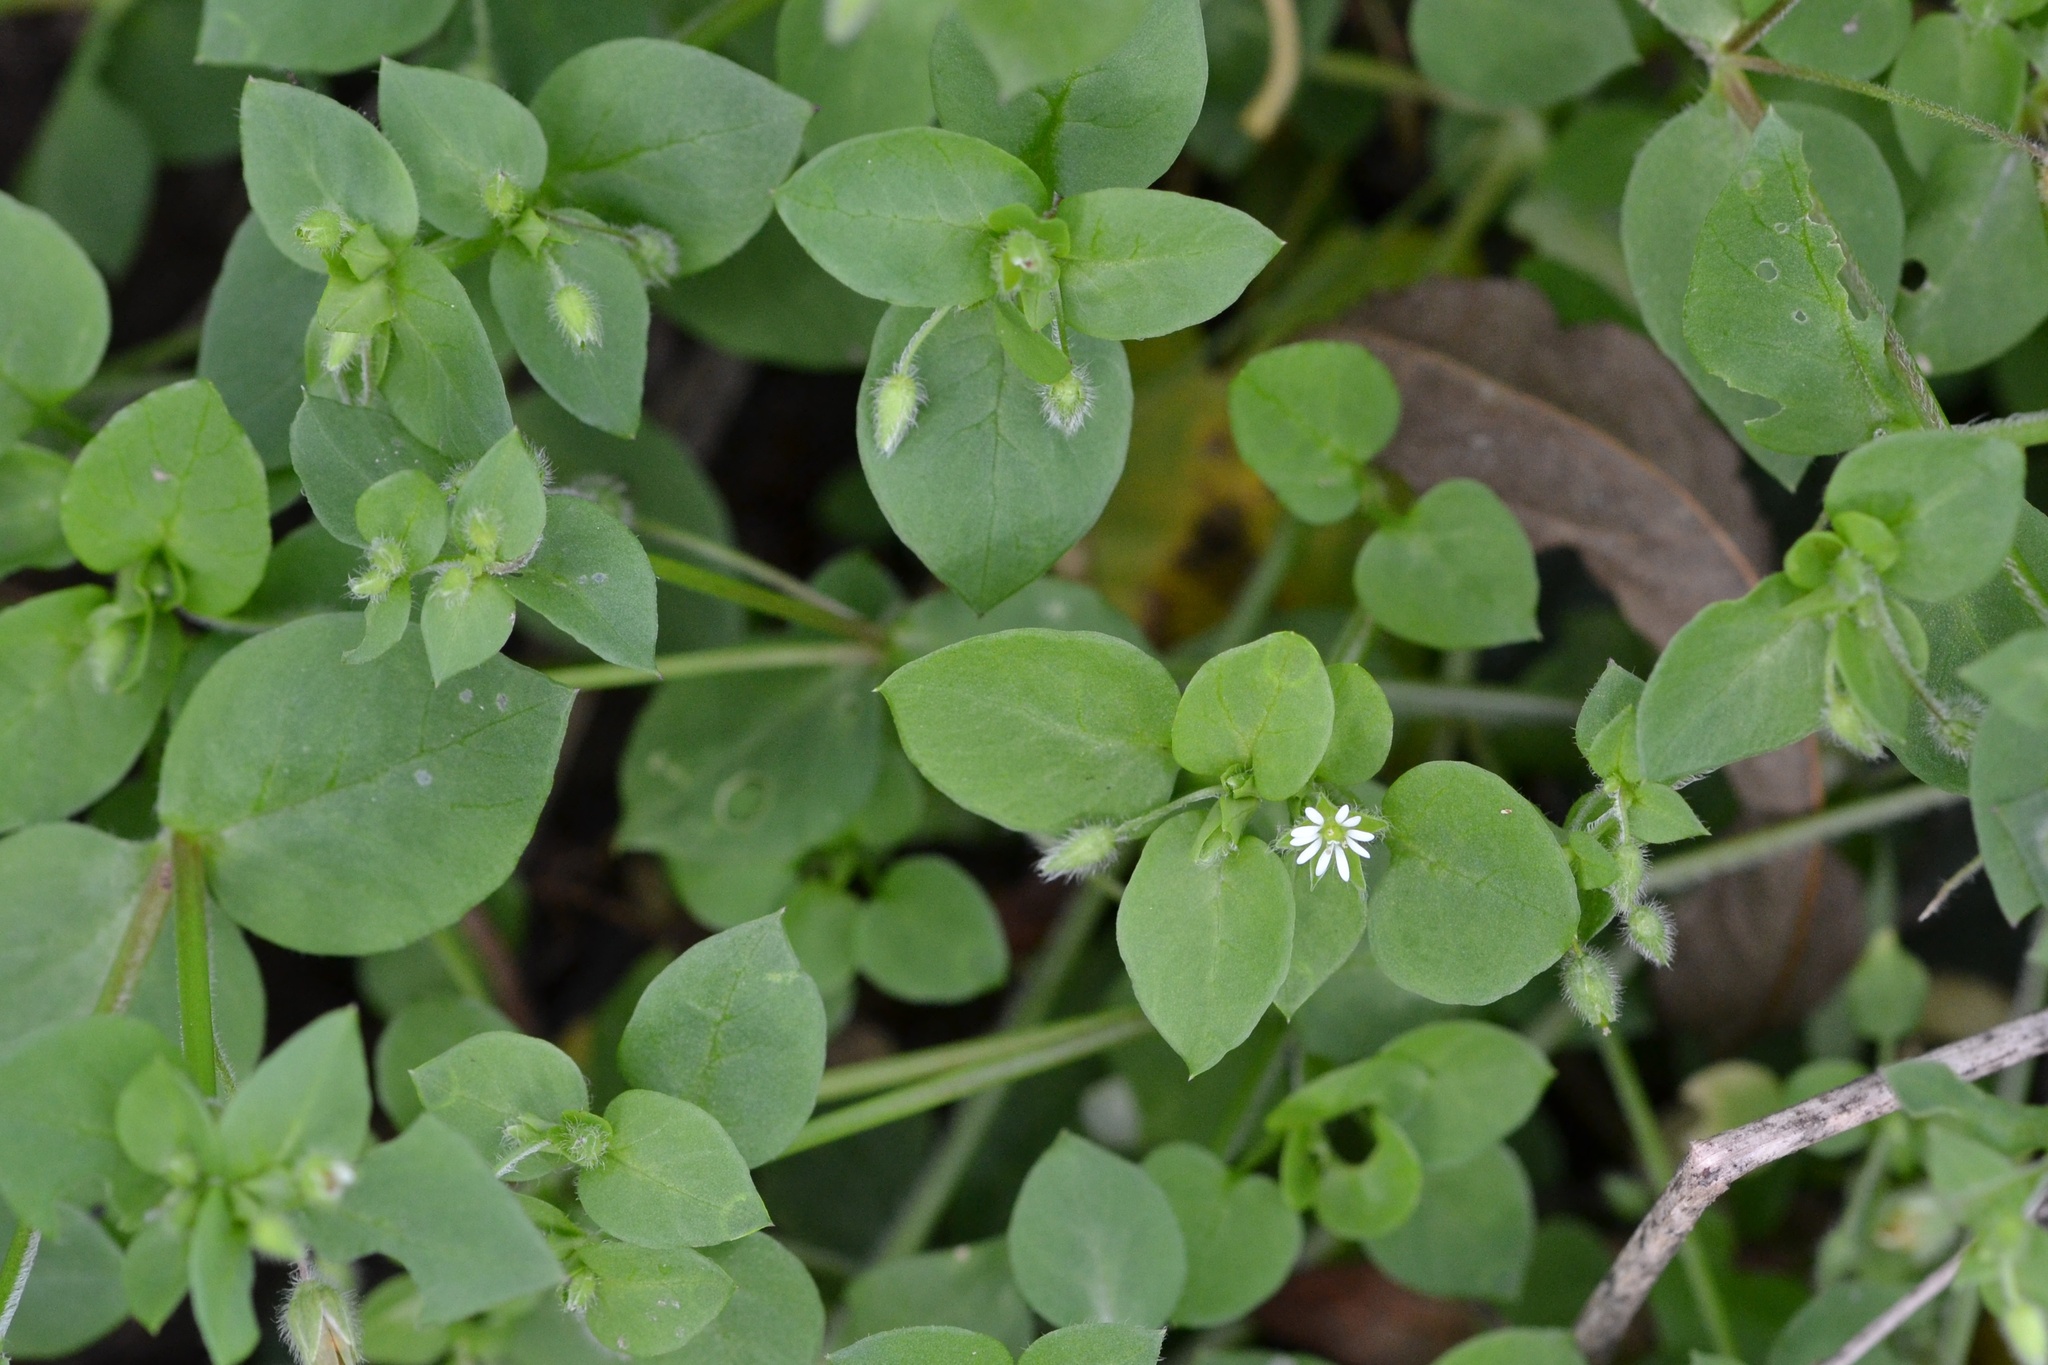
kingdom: Plantae
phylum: Tracheophyta
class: Magnoliopsida
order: Caryophyllales
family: Caryophyllaceae
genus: Stellaria
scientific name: Stellaria media
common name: Common chickweed
